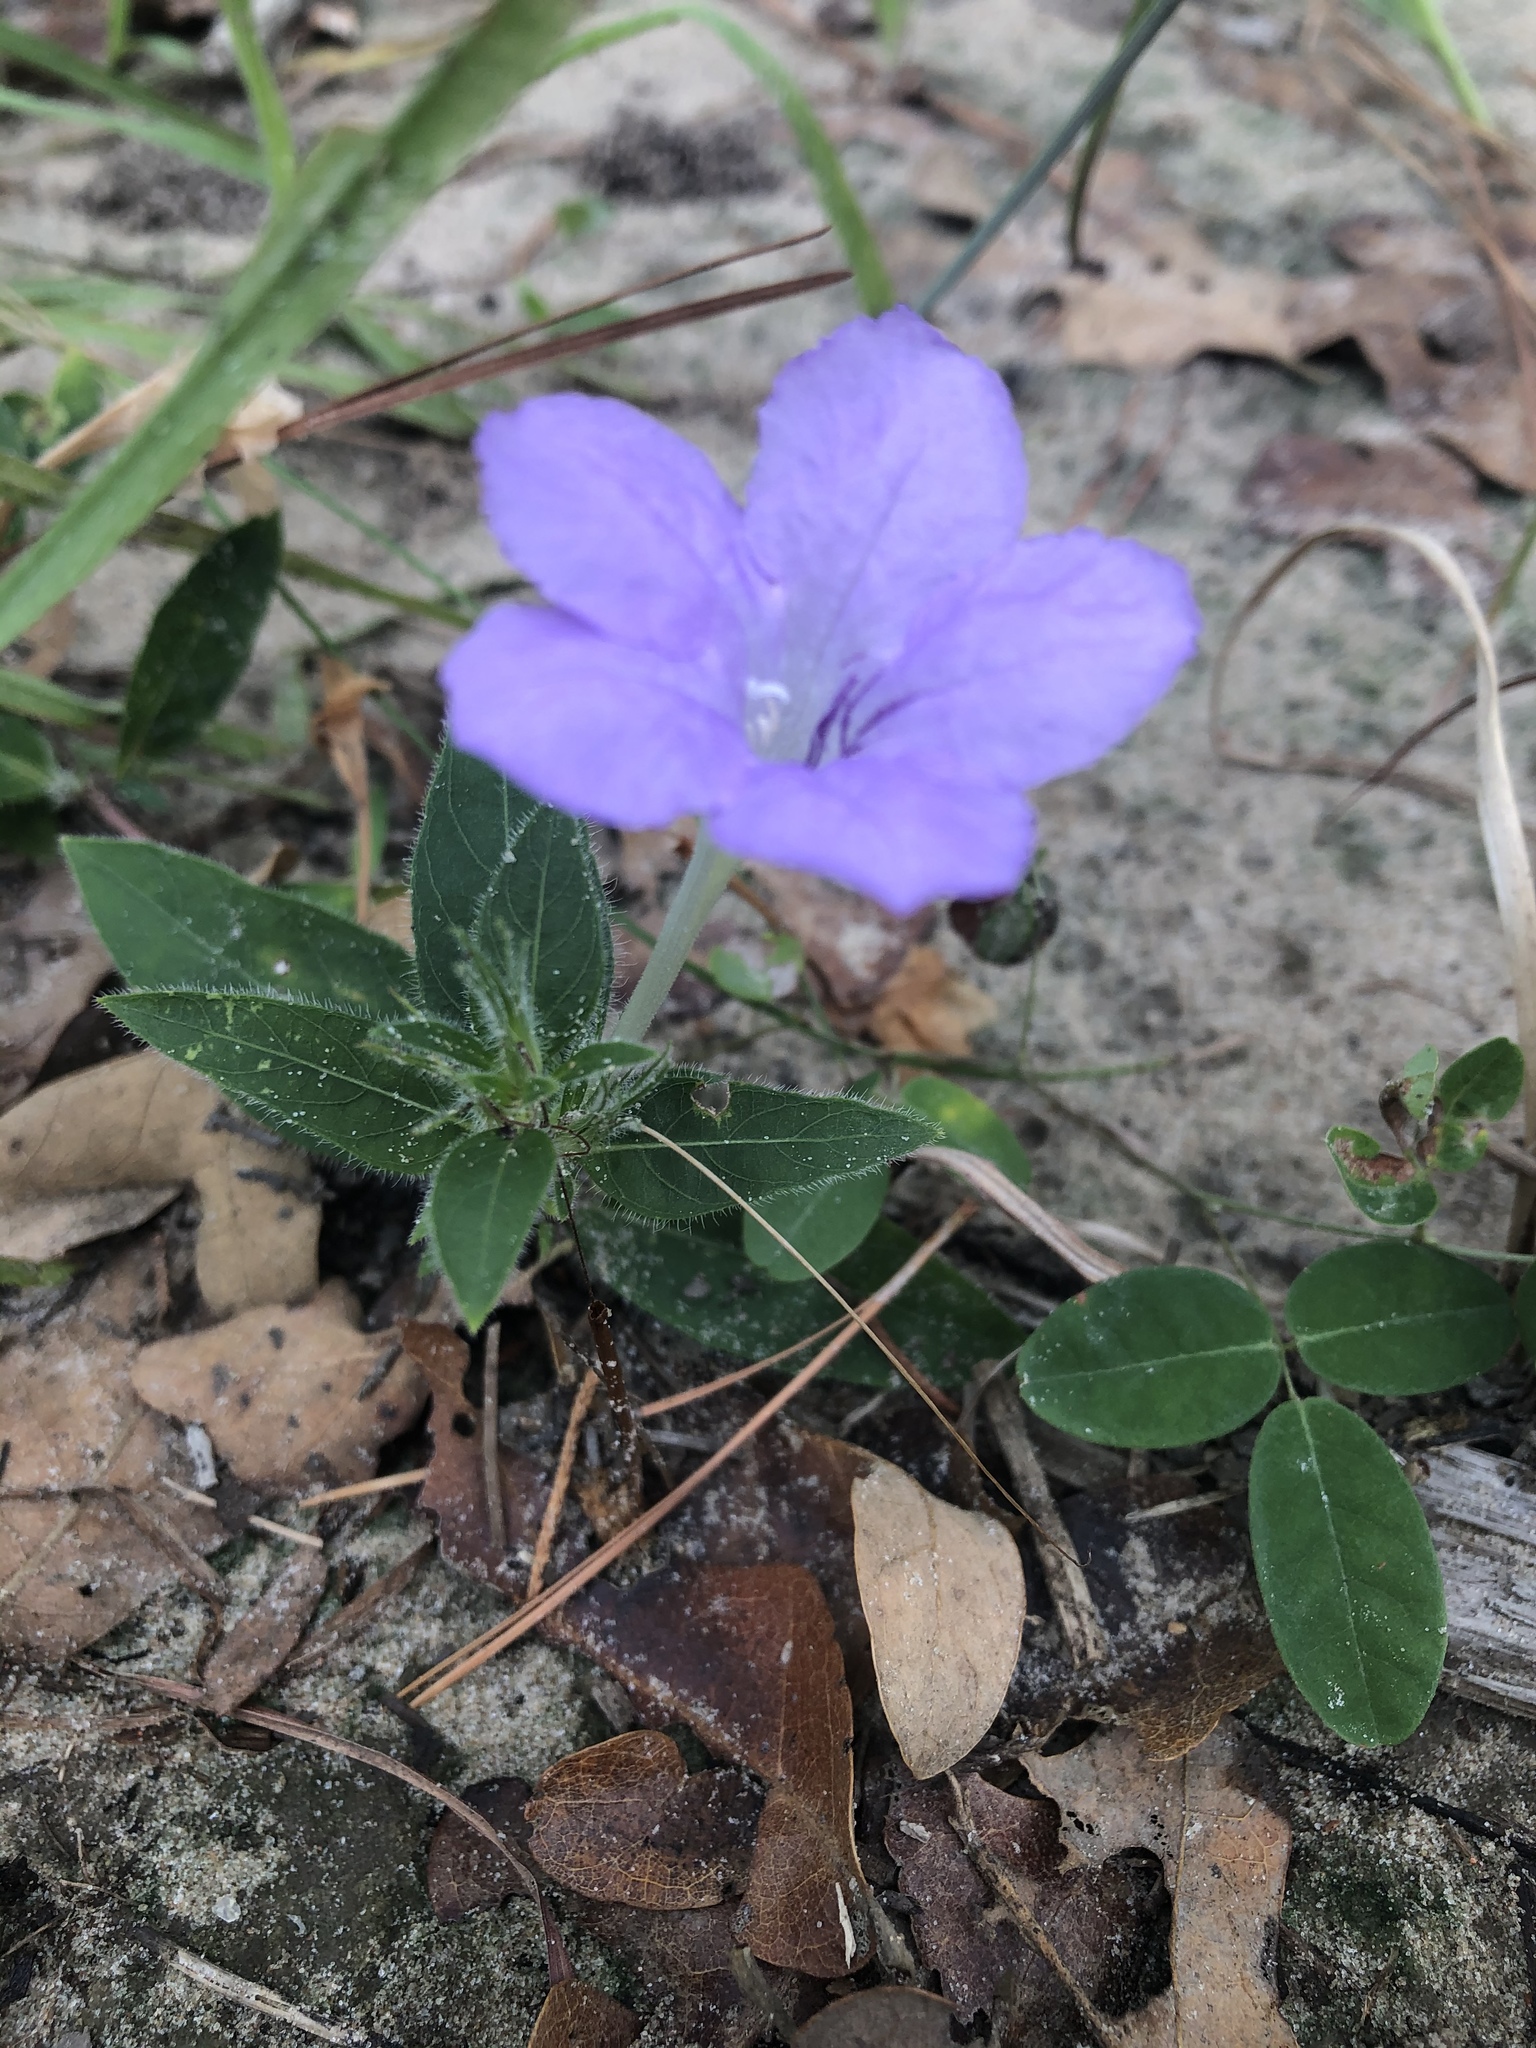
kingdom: Plantae
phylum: Tracheophyta
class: Magnoliopsida
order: Lamiales
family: Acanthaceae
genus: Ruellia
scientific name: Ruellia humilis
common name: Fringe-leaf ruellia
